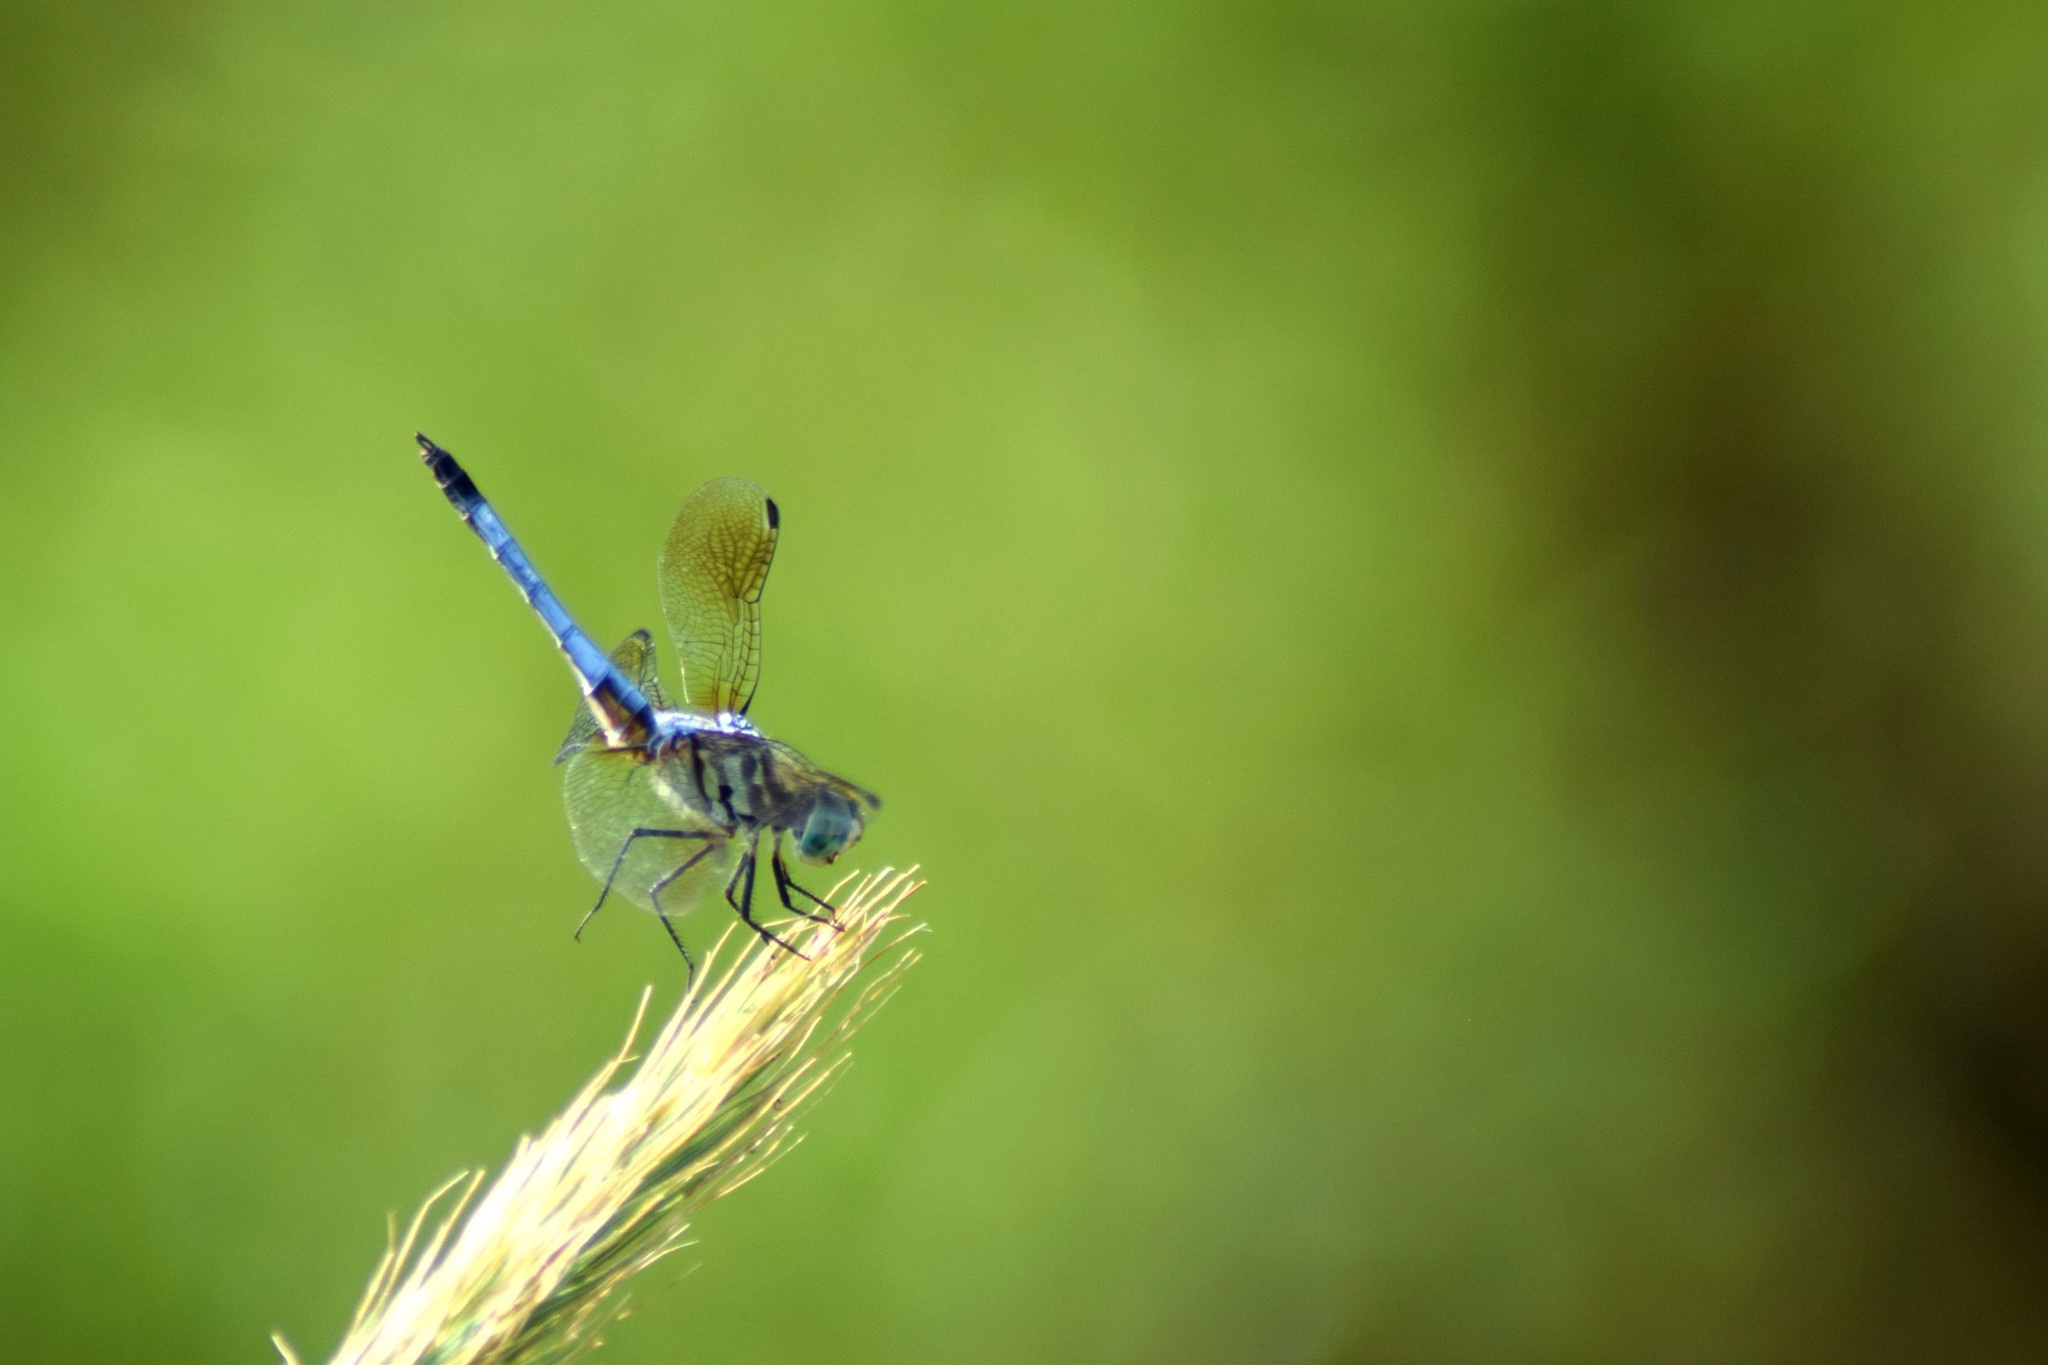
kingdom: Animalia
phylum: Arthropoda
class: Insecta
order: Odonata
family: Libellulidae
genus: Pachydiplax
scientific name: Pachydiplax longipennis
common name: Blue dasher
